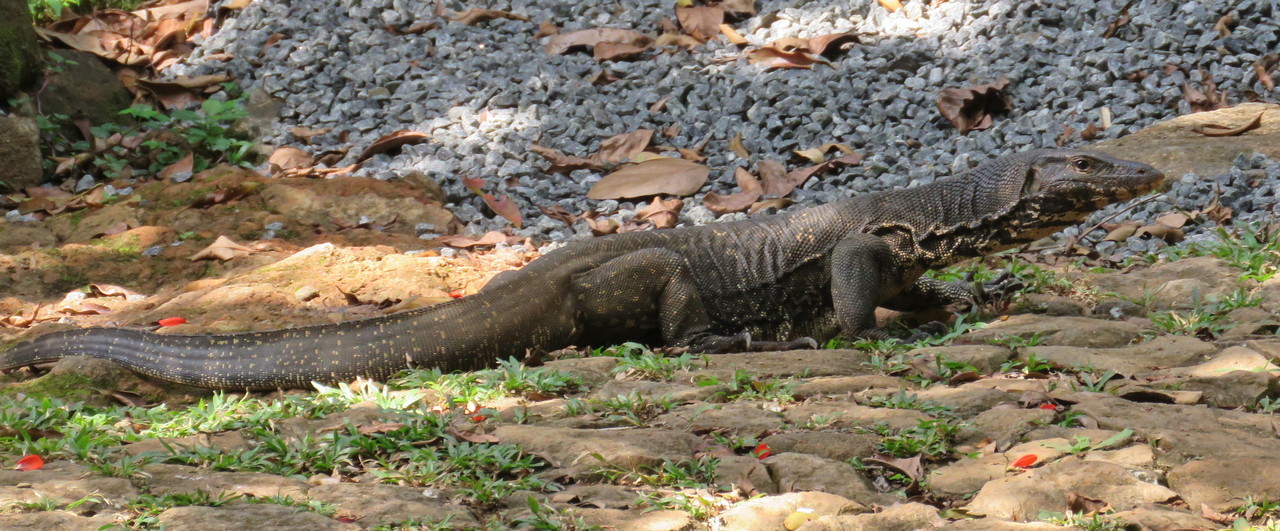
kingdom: Animalia
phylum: Chordata
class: Squamata
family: Varanidae
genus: Varanus
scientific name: Varanus salvator
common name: Common water monitor
